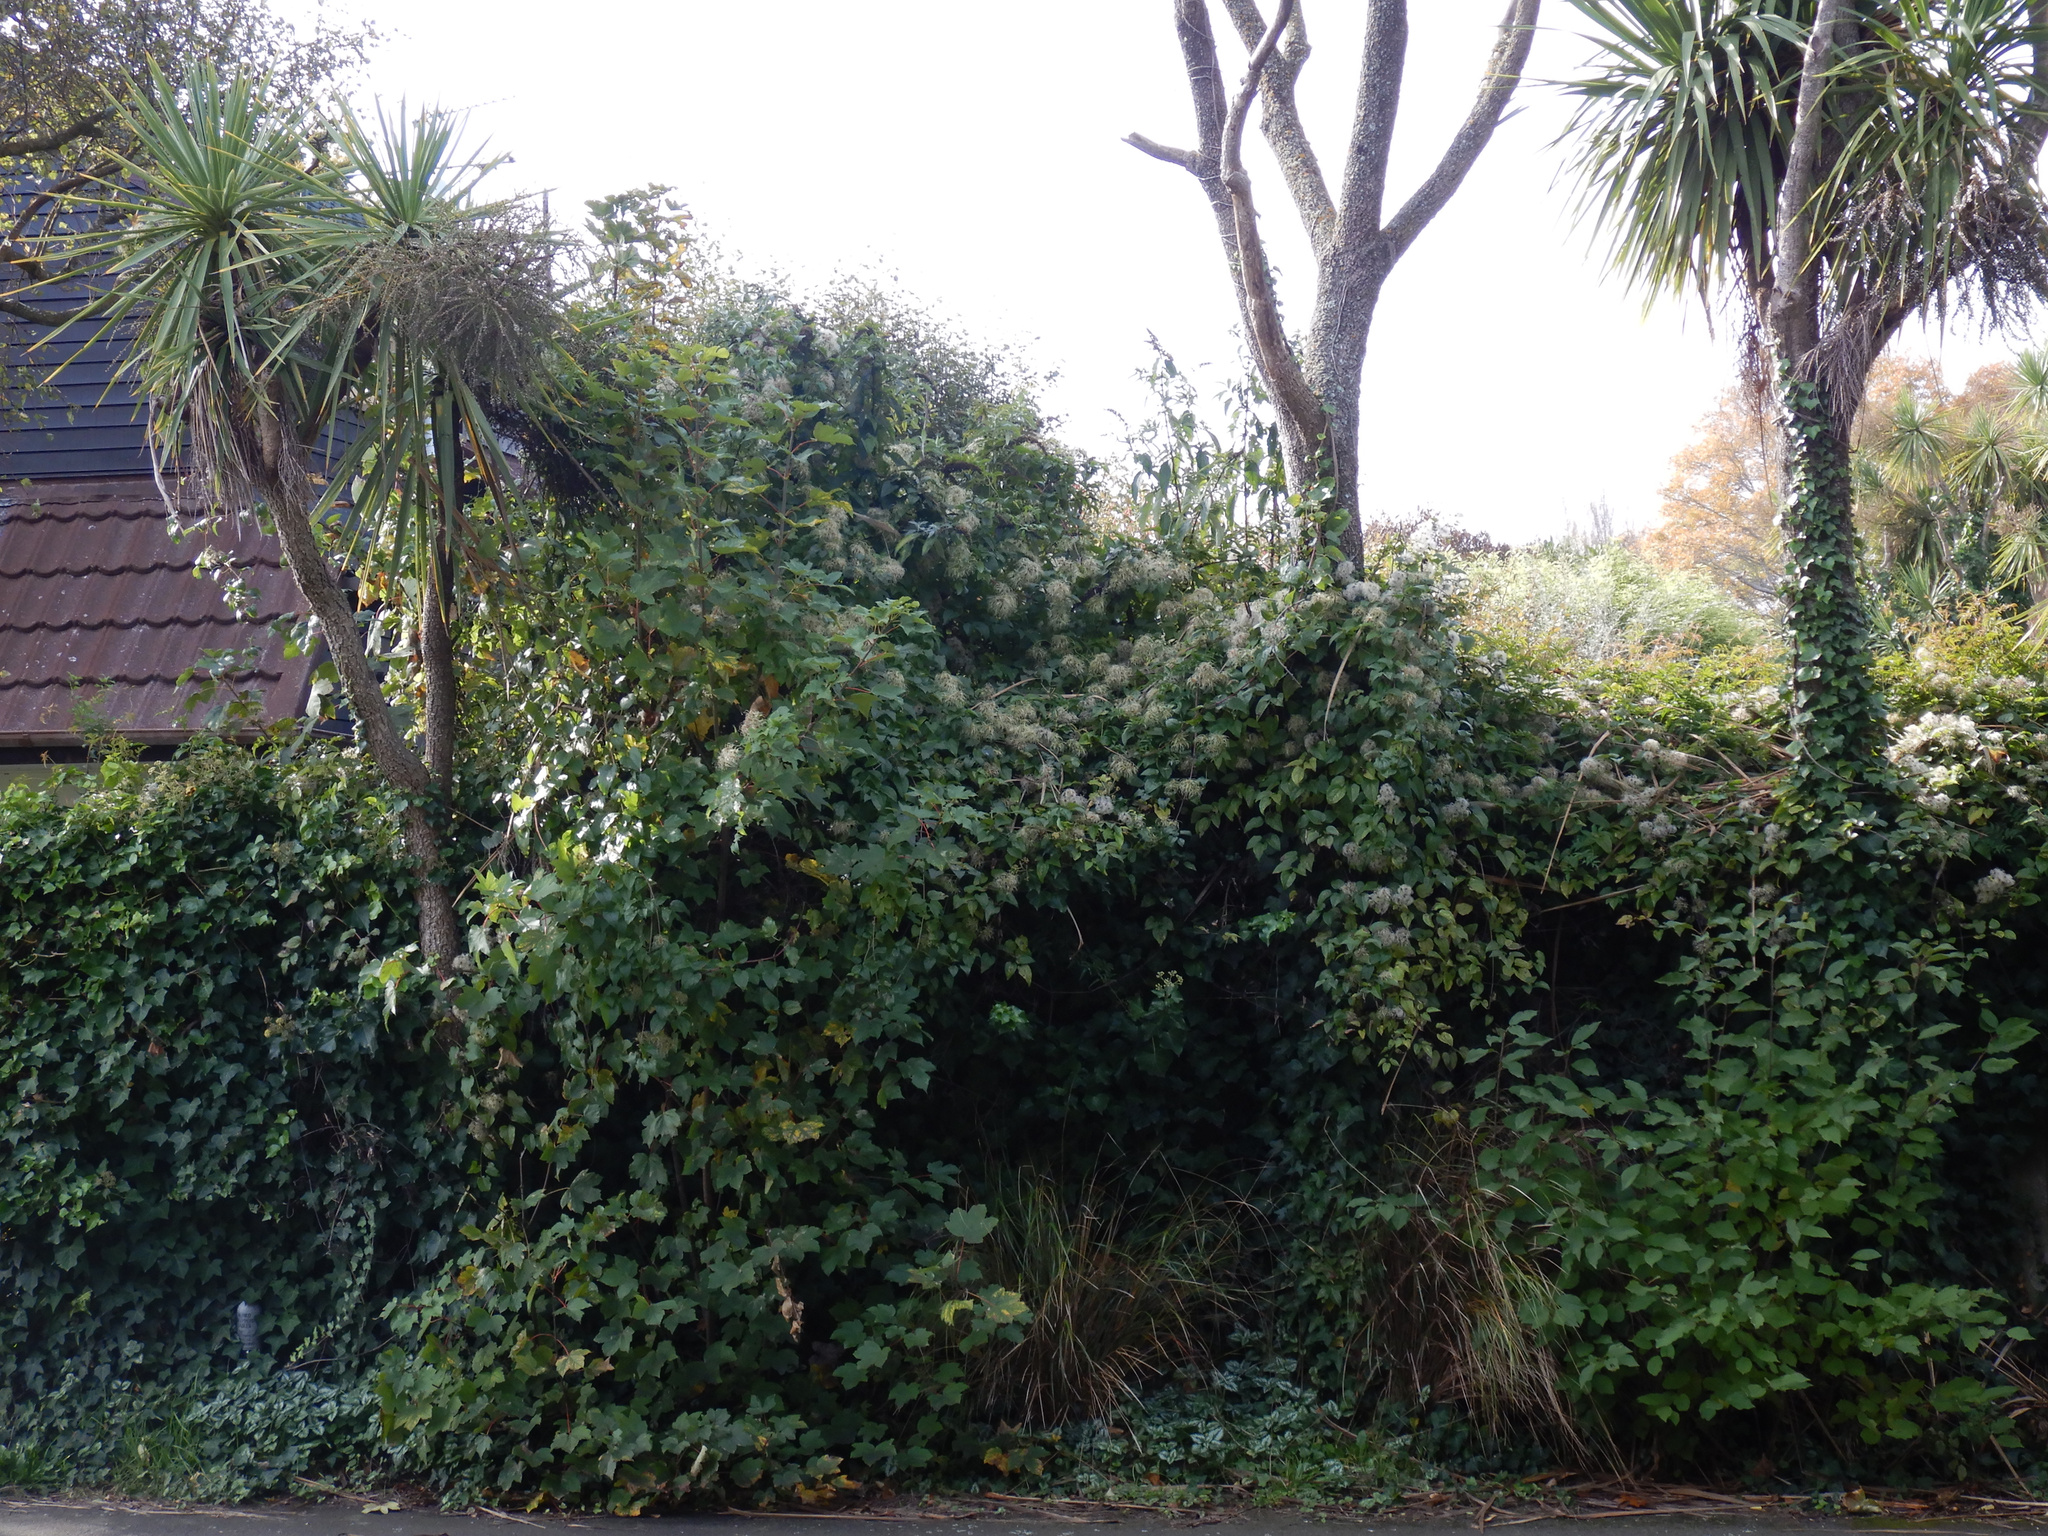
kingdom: Plantae
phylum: Tracheophyta
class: Liliopsida
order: Asparagales
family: Asparagaceae
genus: Cordyline
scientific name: Cordyline australis
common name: Cabbage-palm
